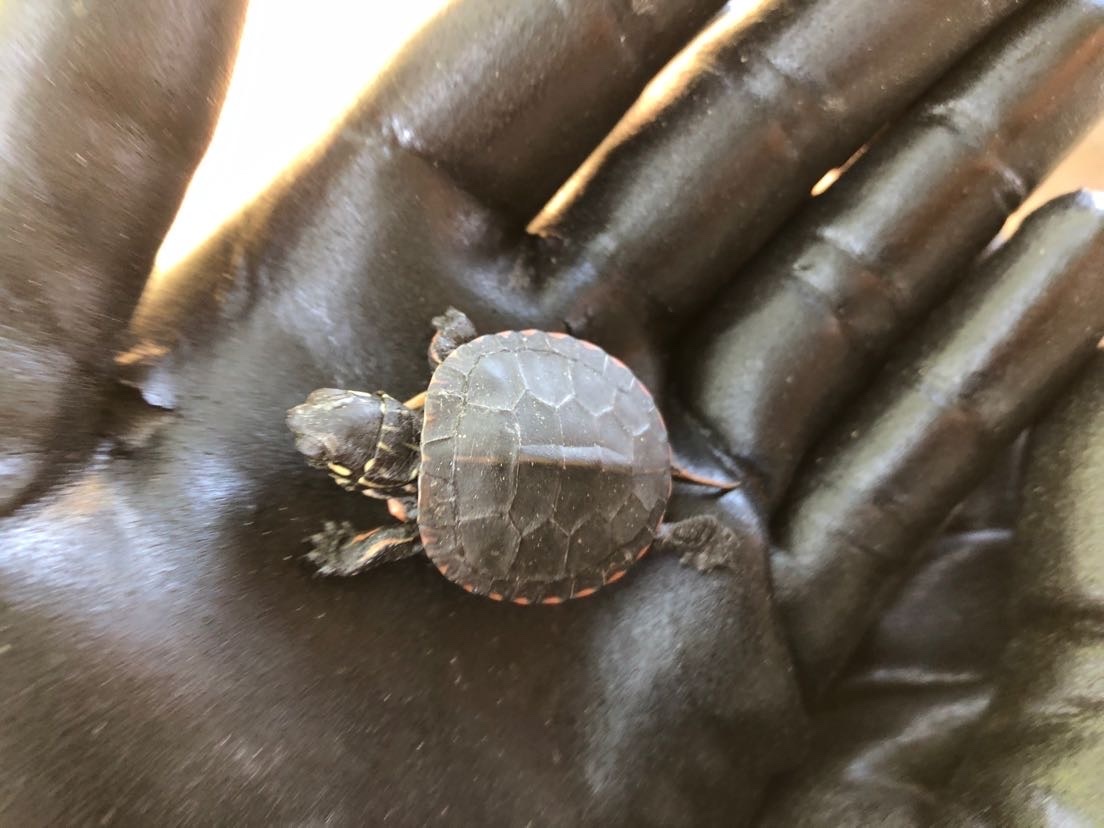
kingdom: Animalia
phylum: Chordata
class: Testudines
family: Emydidae
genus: Chrysemys
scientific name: Chrysemys picta
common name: Painted turtle
